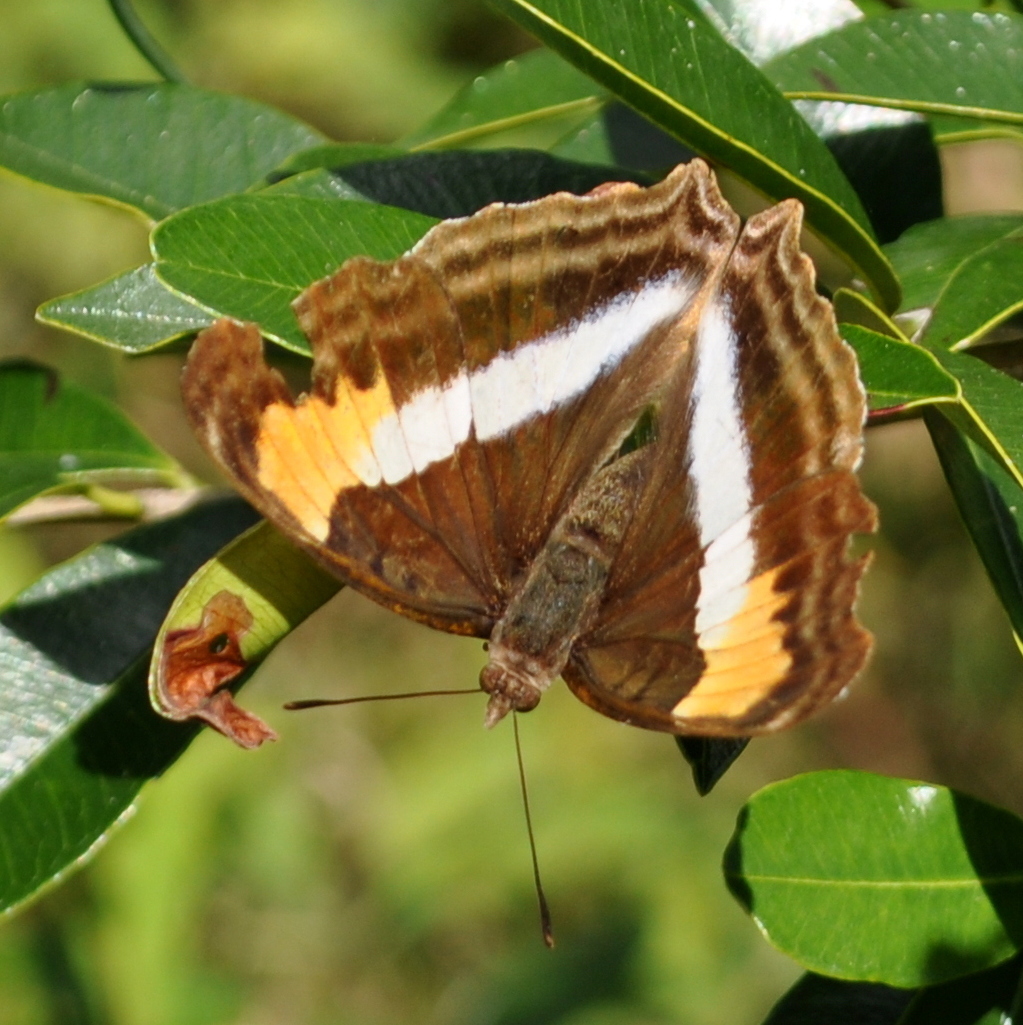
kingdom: Animalia
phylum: Arthropoda
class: Insecta
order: Lepidoptera
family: Nymphalidae
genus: Doxocopa
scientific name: Doxocopa laurentia
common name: Turquoise emperor
